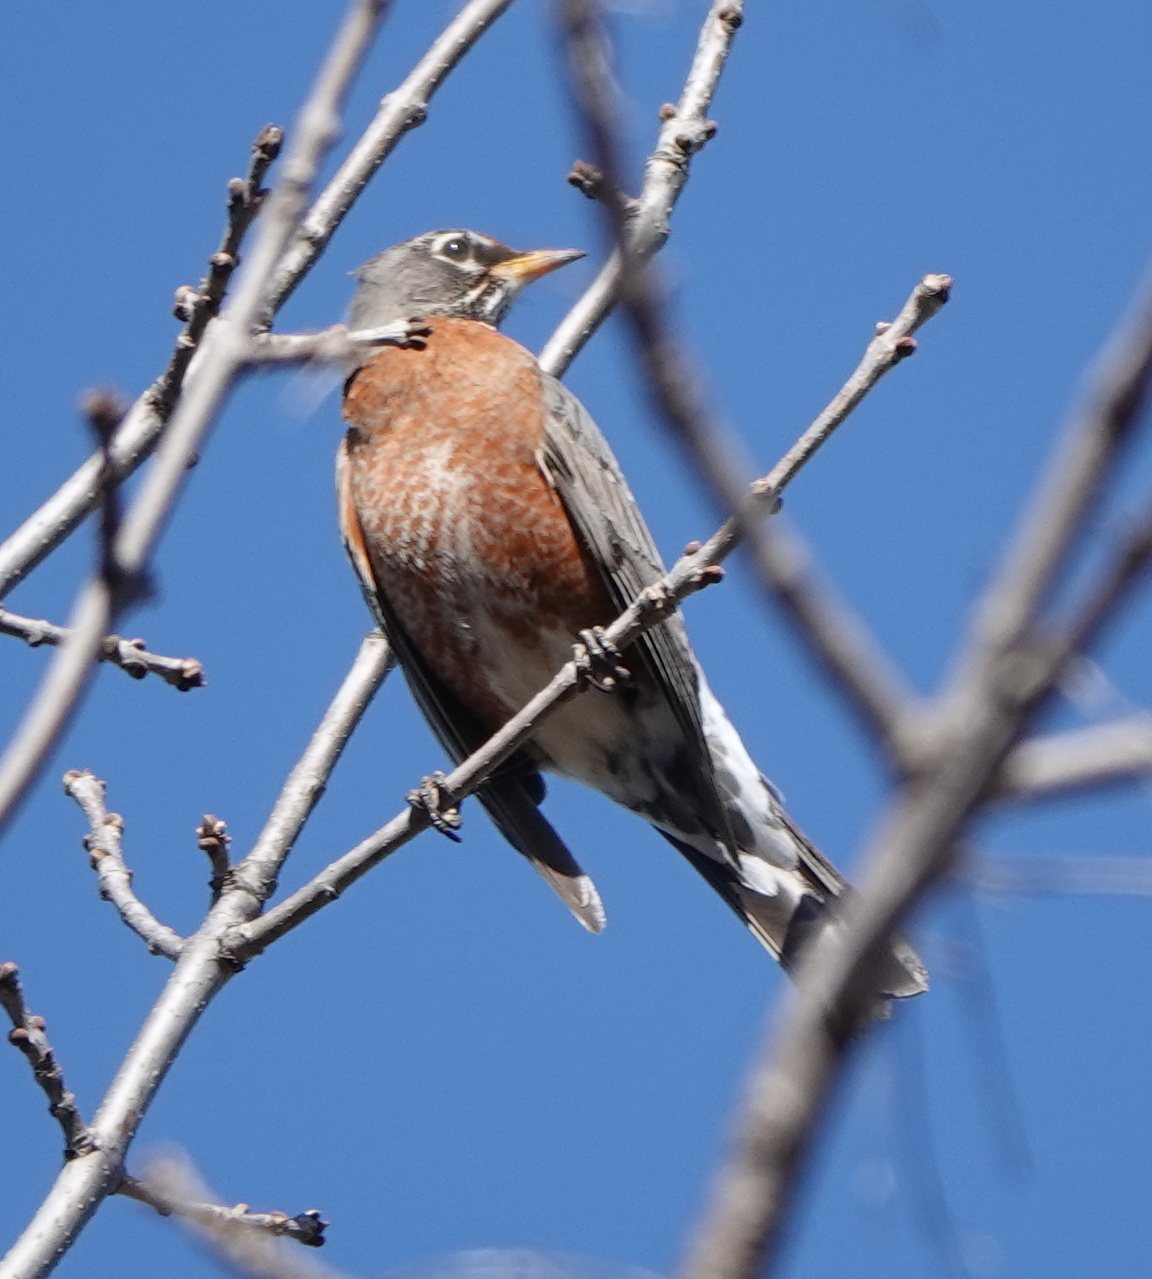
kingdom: Animalia
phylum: Chordata
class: Aves
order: Passeriformes
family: Turdidae
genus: Turdus
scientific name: Turdus migratorius
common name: American robin
